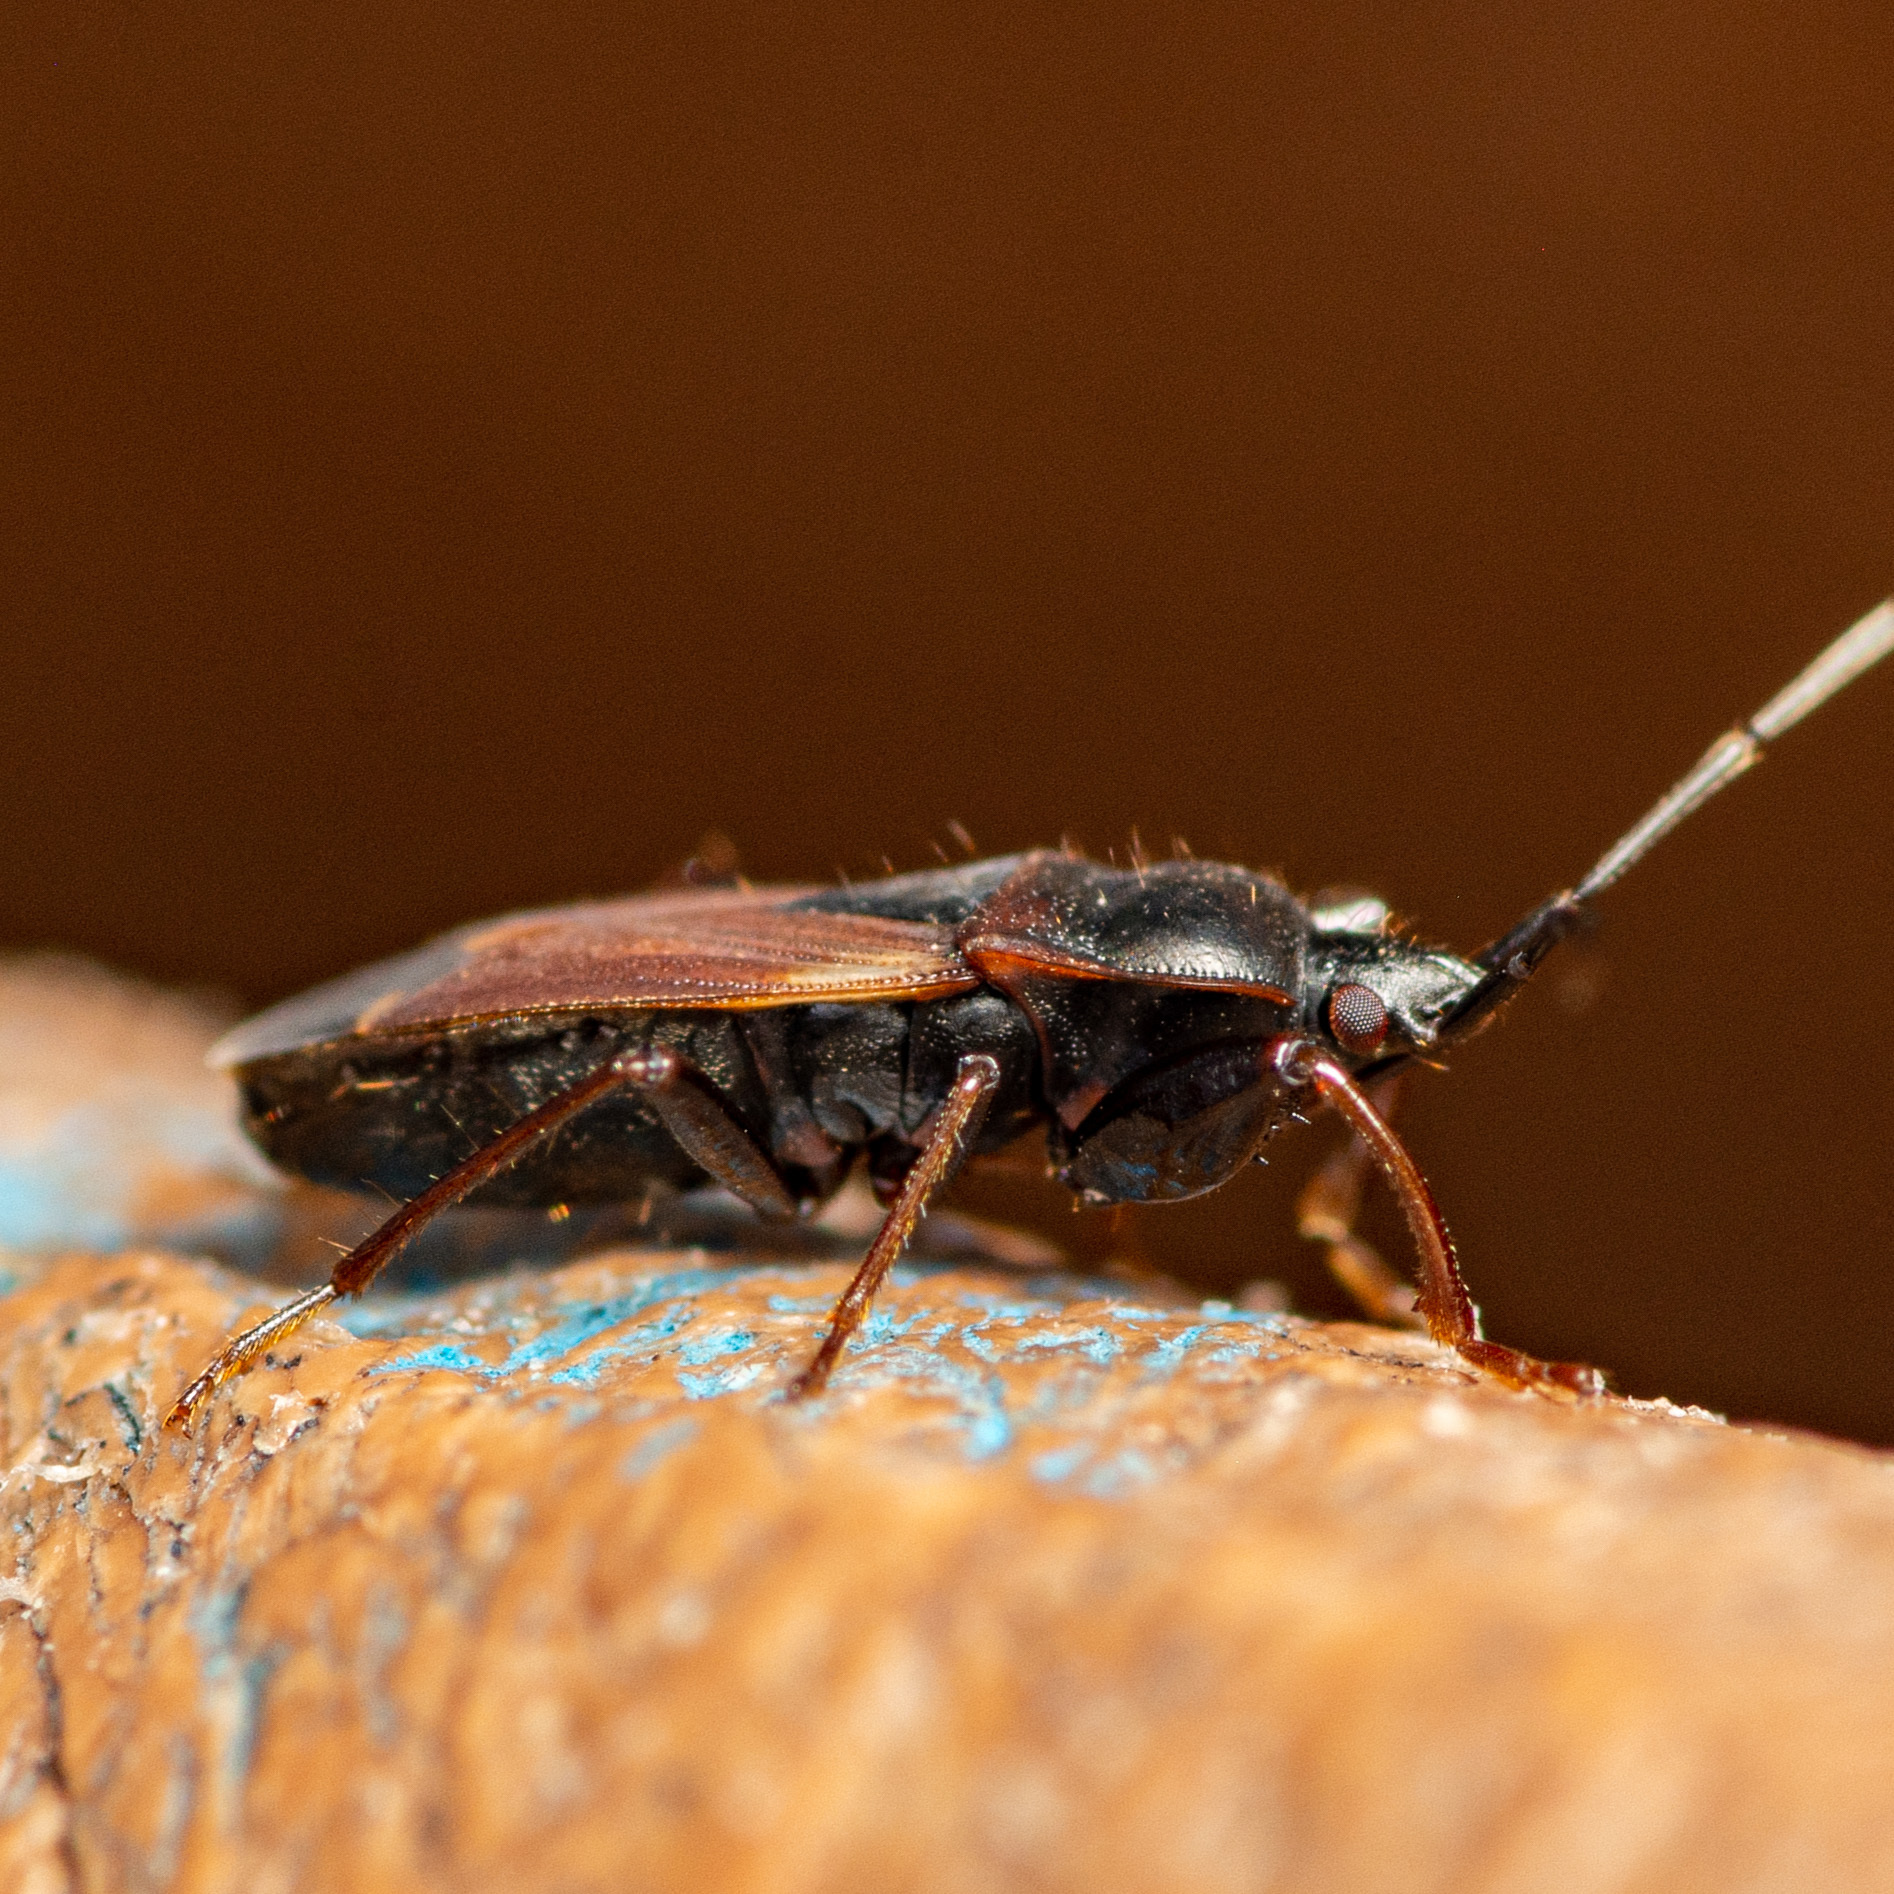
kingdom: Animalia
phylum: Arthropoda
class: Insecta
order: Hemiptera
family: Rhyparochromidae
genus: Eremocoris
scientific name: Eremocoris depressus
